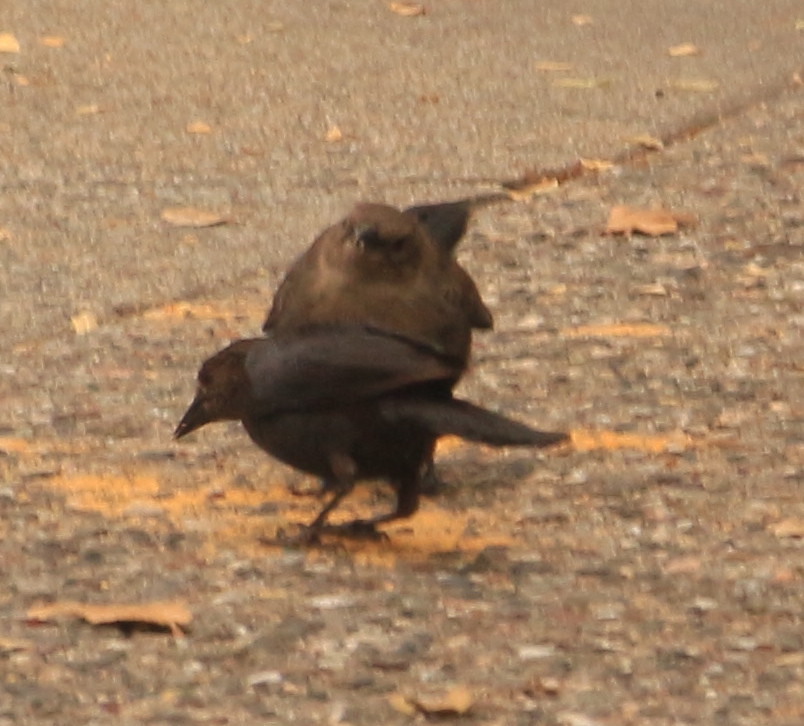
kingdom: Animalia
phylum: Chordata
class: Aves
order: Passeriformes
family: Icteridae
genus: Euphagus
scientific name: Euphagus cyanocephalus
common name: Brewer's blackbird
